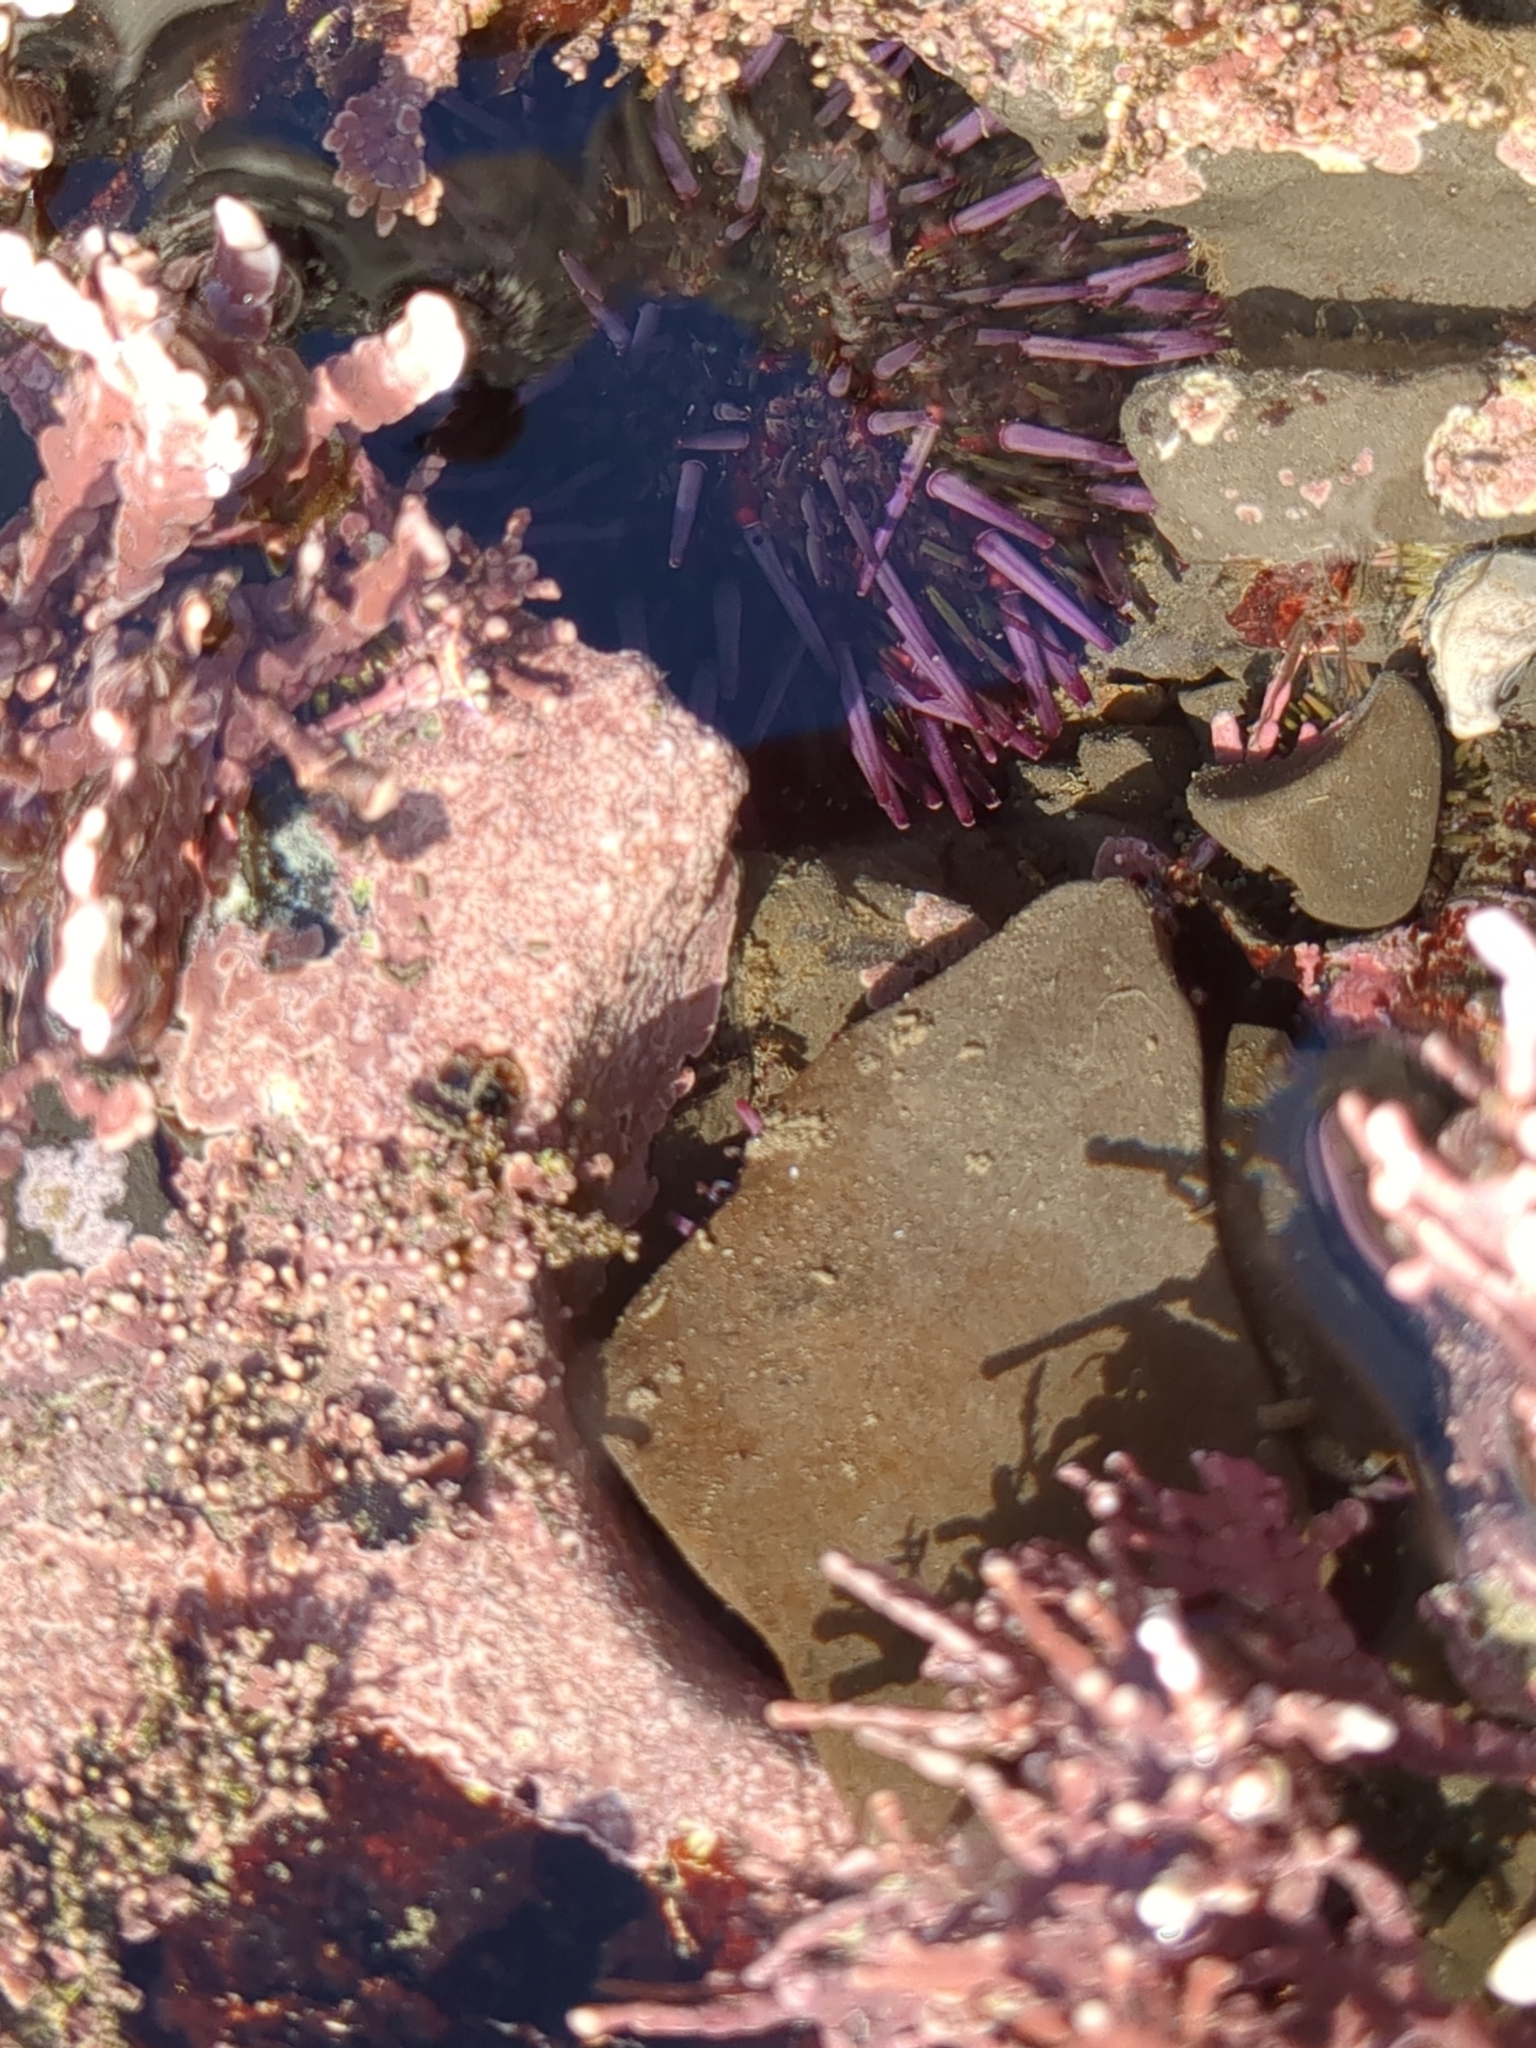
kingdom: Animalia
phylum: Echinodermata
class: Echinoidea
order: Camarodonta
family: Strongylocentrotidae
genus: Strongylocentrotus
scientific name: Strongylocentrotus purpuratus
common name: Purple sea urchin
